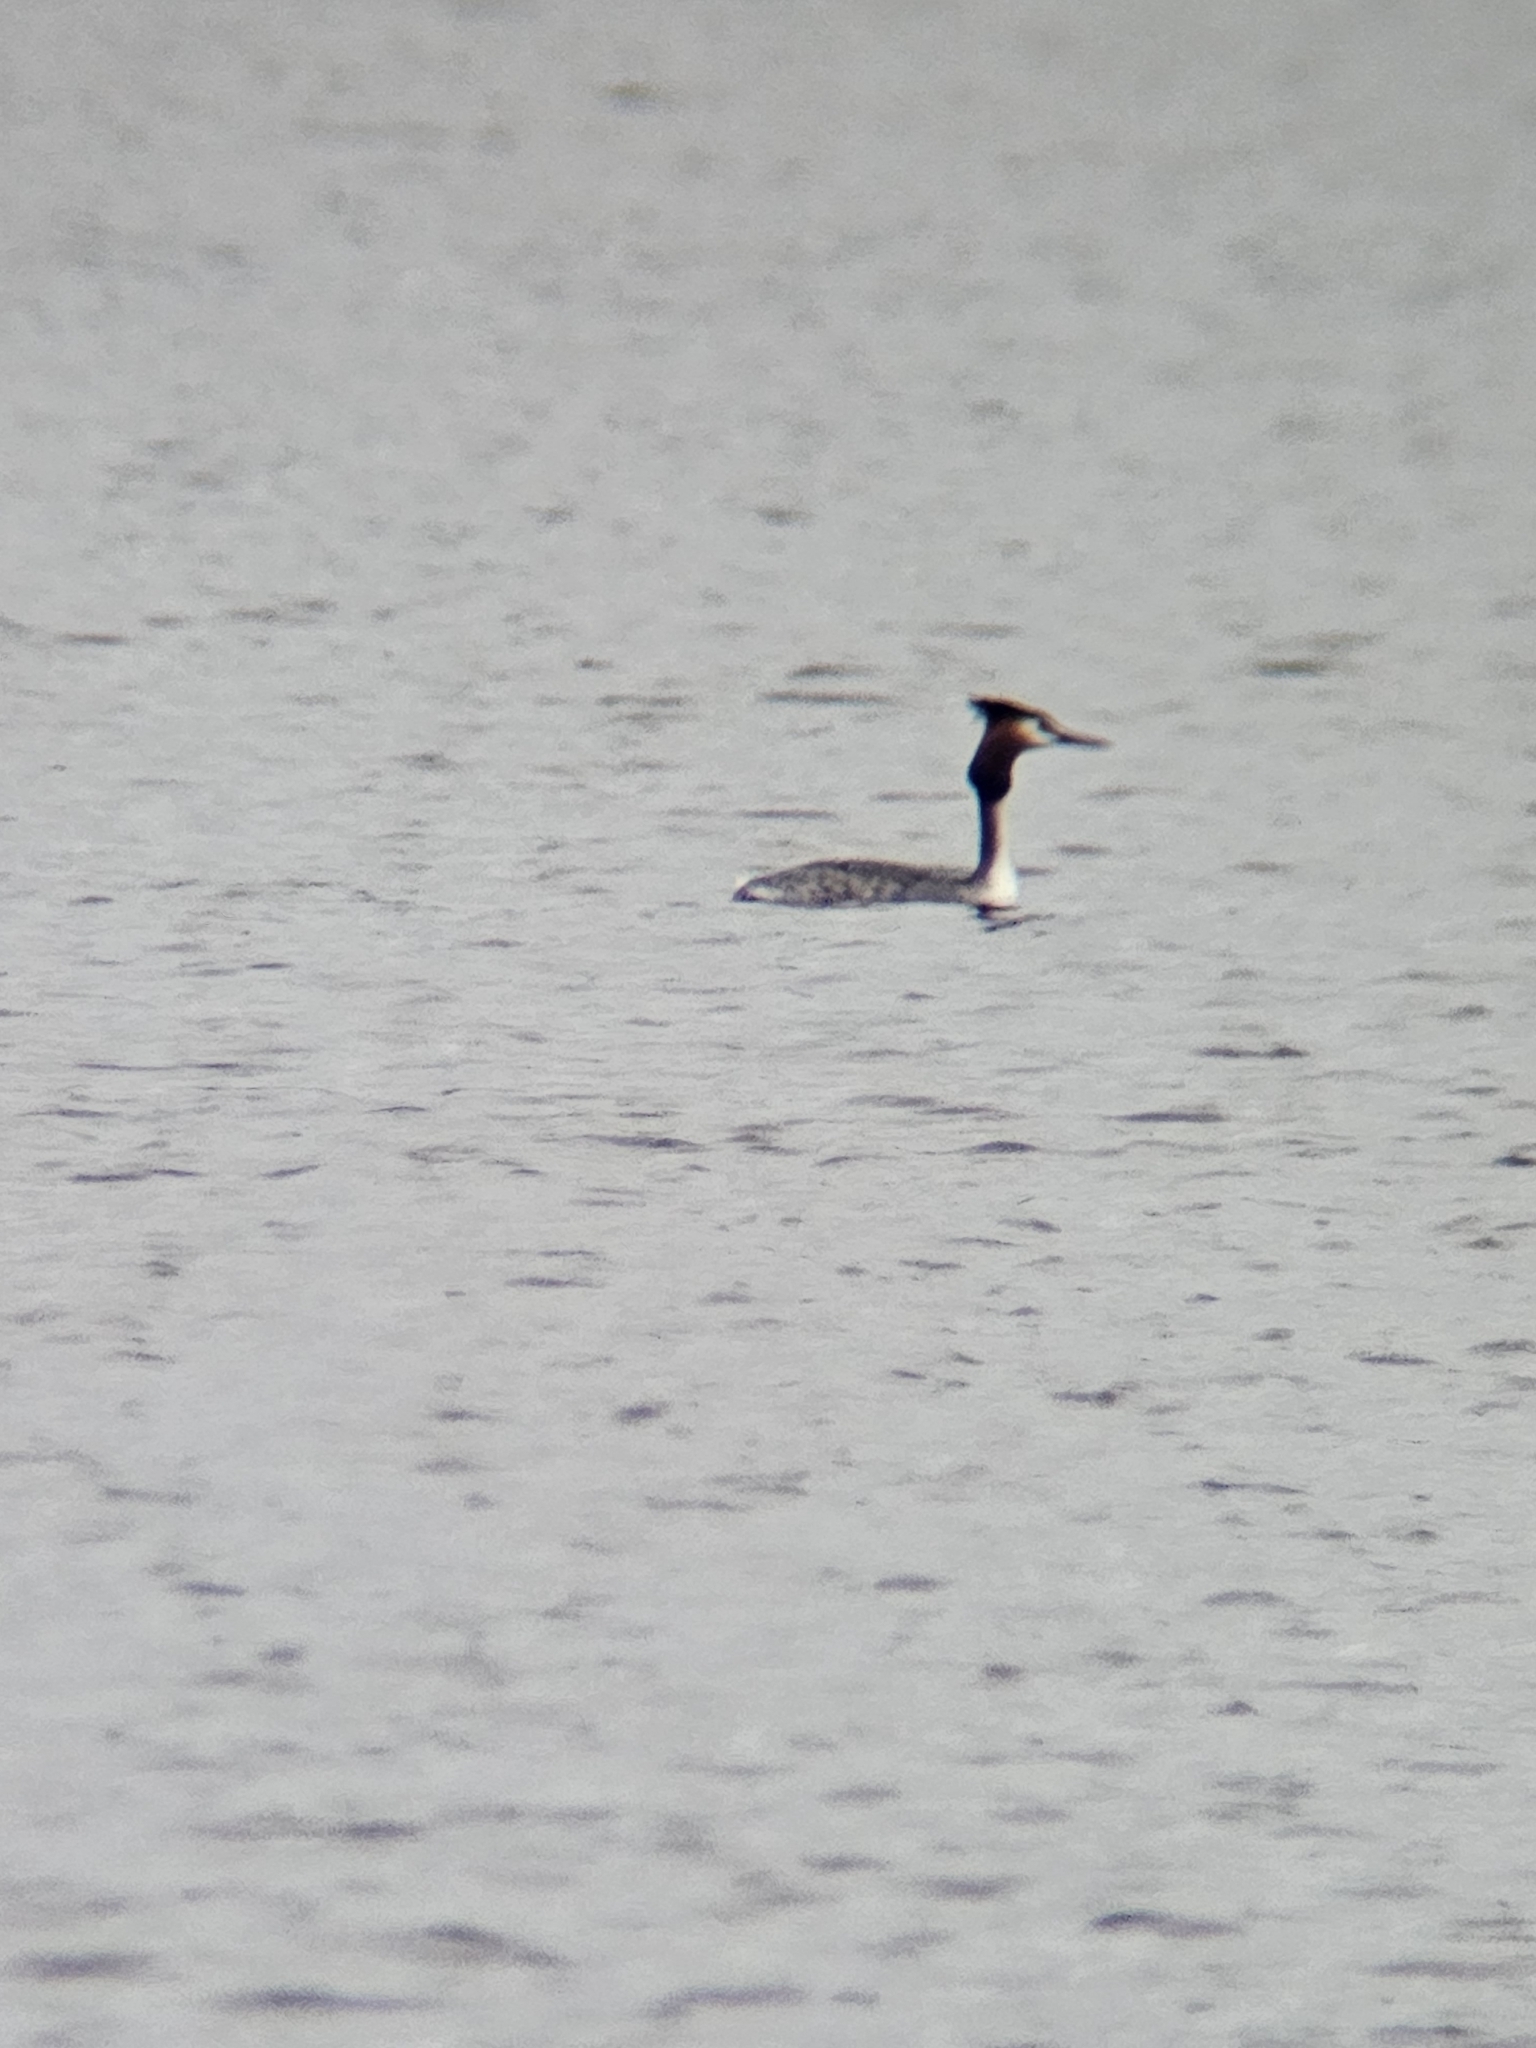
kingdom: Animalia
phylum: Chordata
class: Aves
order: Podicipediformes
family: Podicipedidae
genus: Podiceps
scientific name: Podiceps cristatus
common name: Great crested grebe
